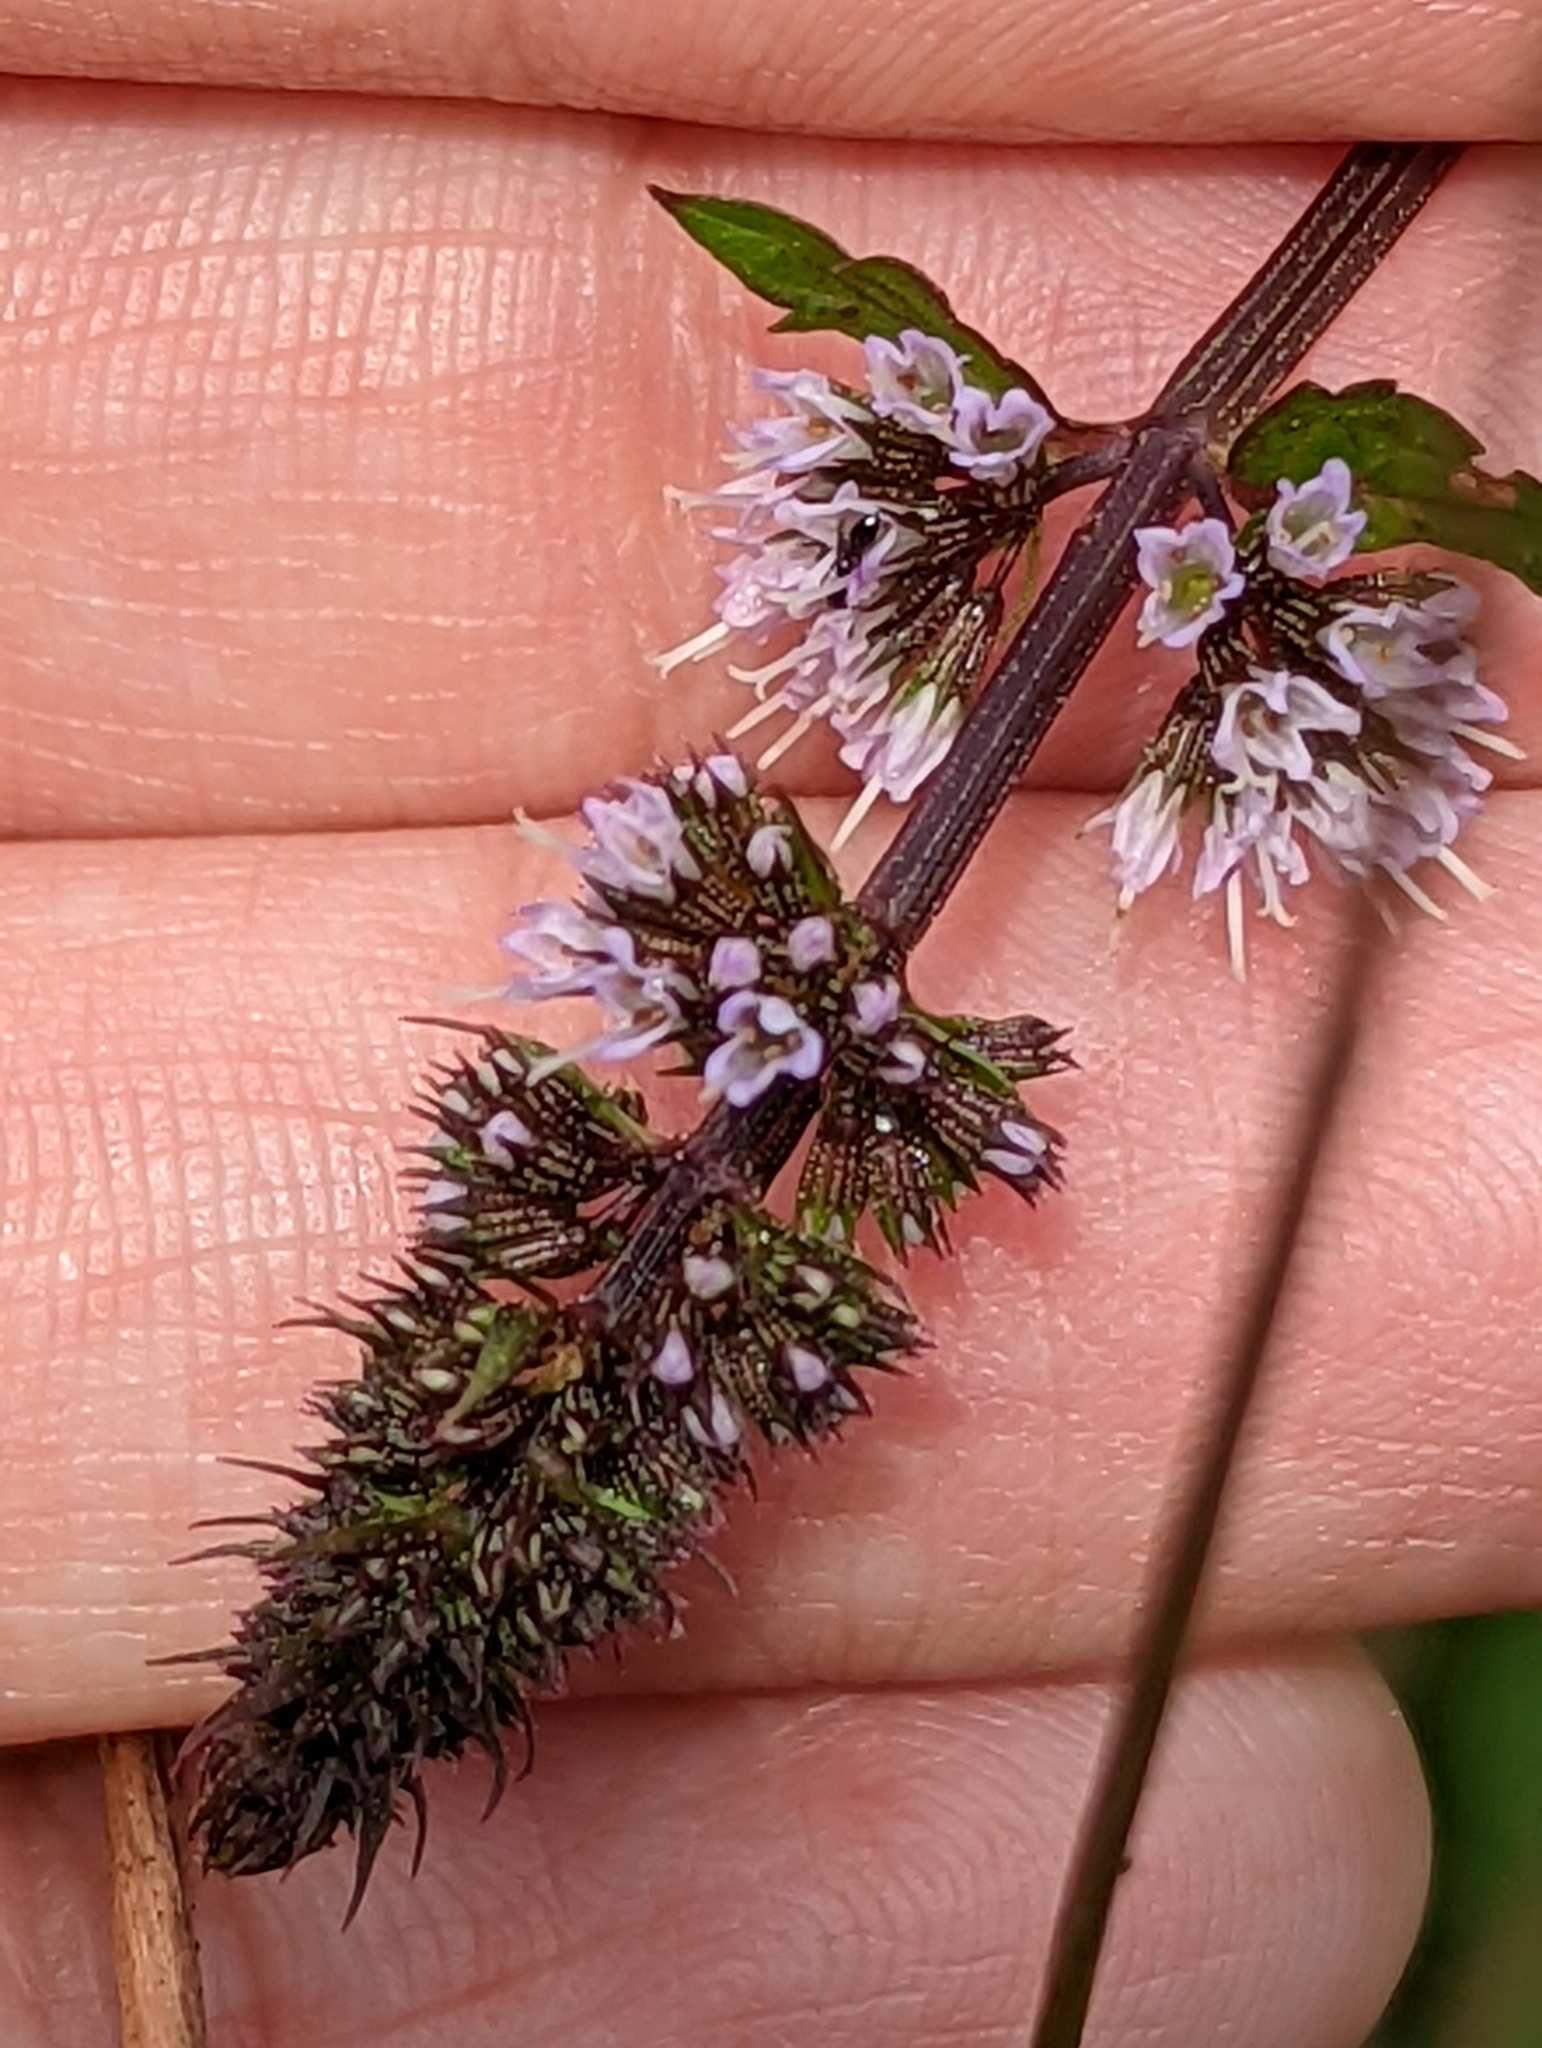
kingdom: Plantae
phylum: Tracheophyta
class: Magnoliopsida
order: Lamiales
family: Lamiaceae
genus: Mentha
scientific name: Mentha spicata
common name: Spearmint
